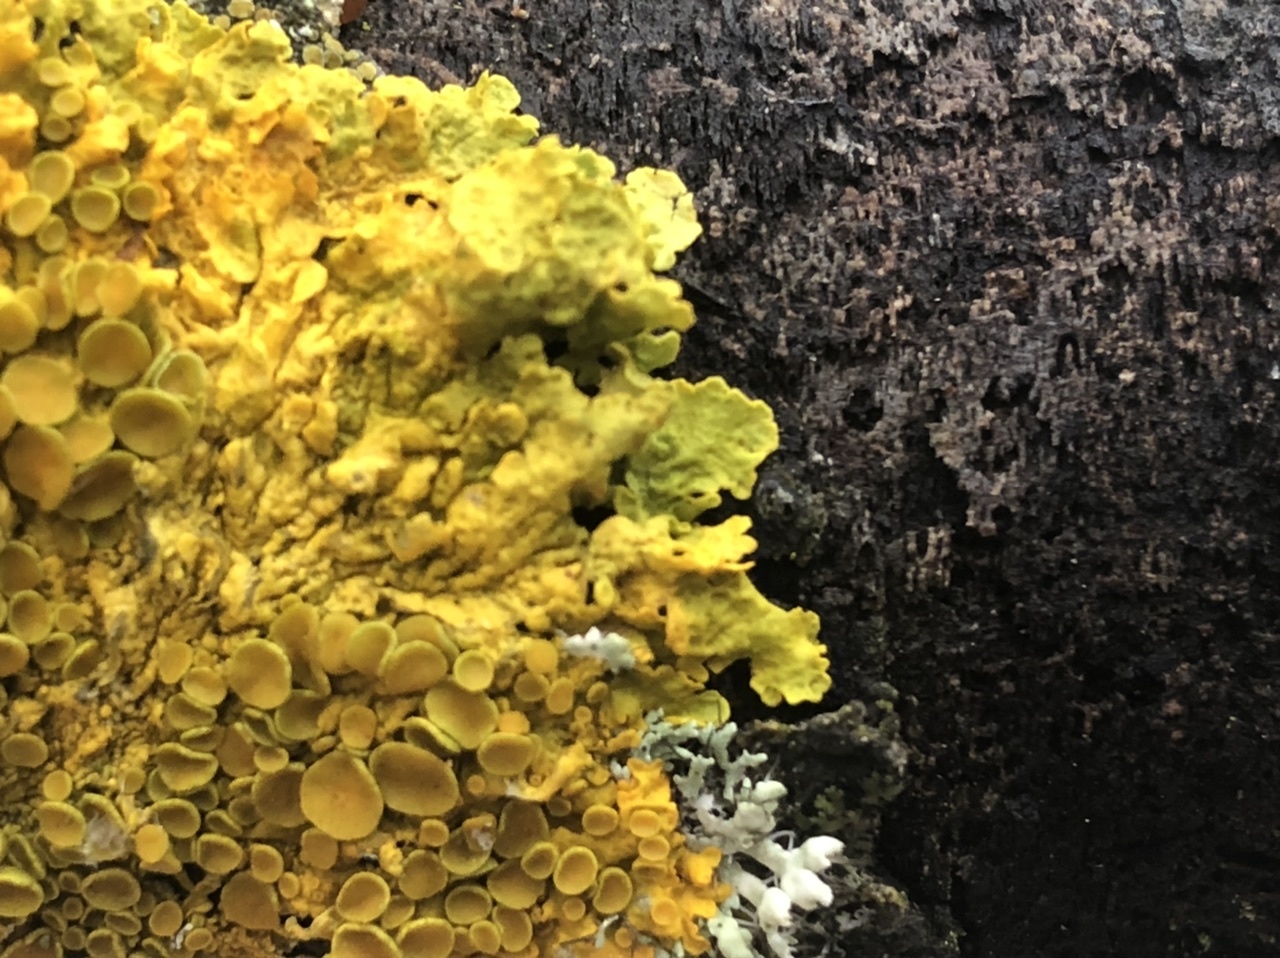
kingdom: Fungi
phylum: Ascomycota
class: Lecanoromycetes
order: Teloschistales
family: Teloschistaceae
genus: Xanthoria
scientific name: Xanthoria parietina
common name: Common orange lichen
